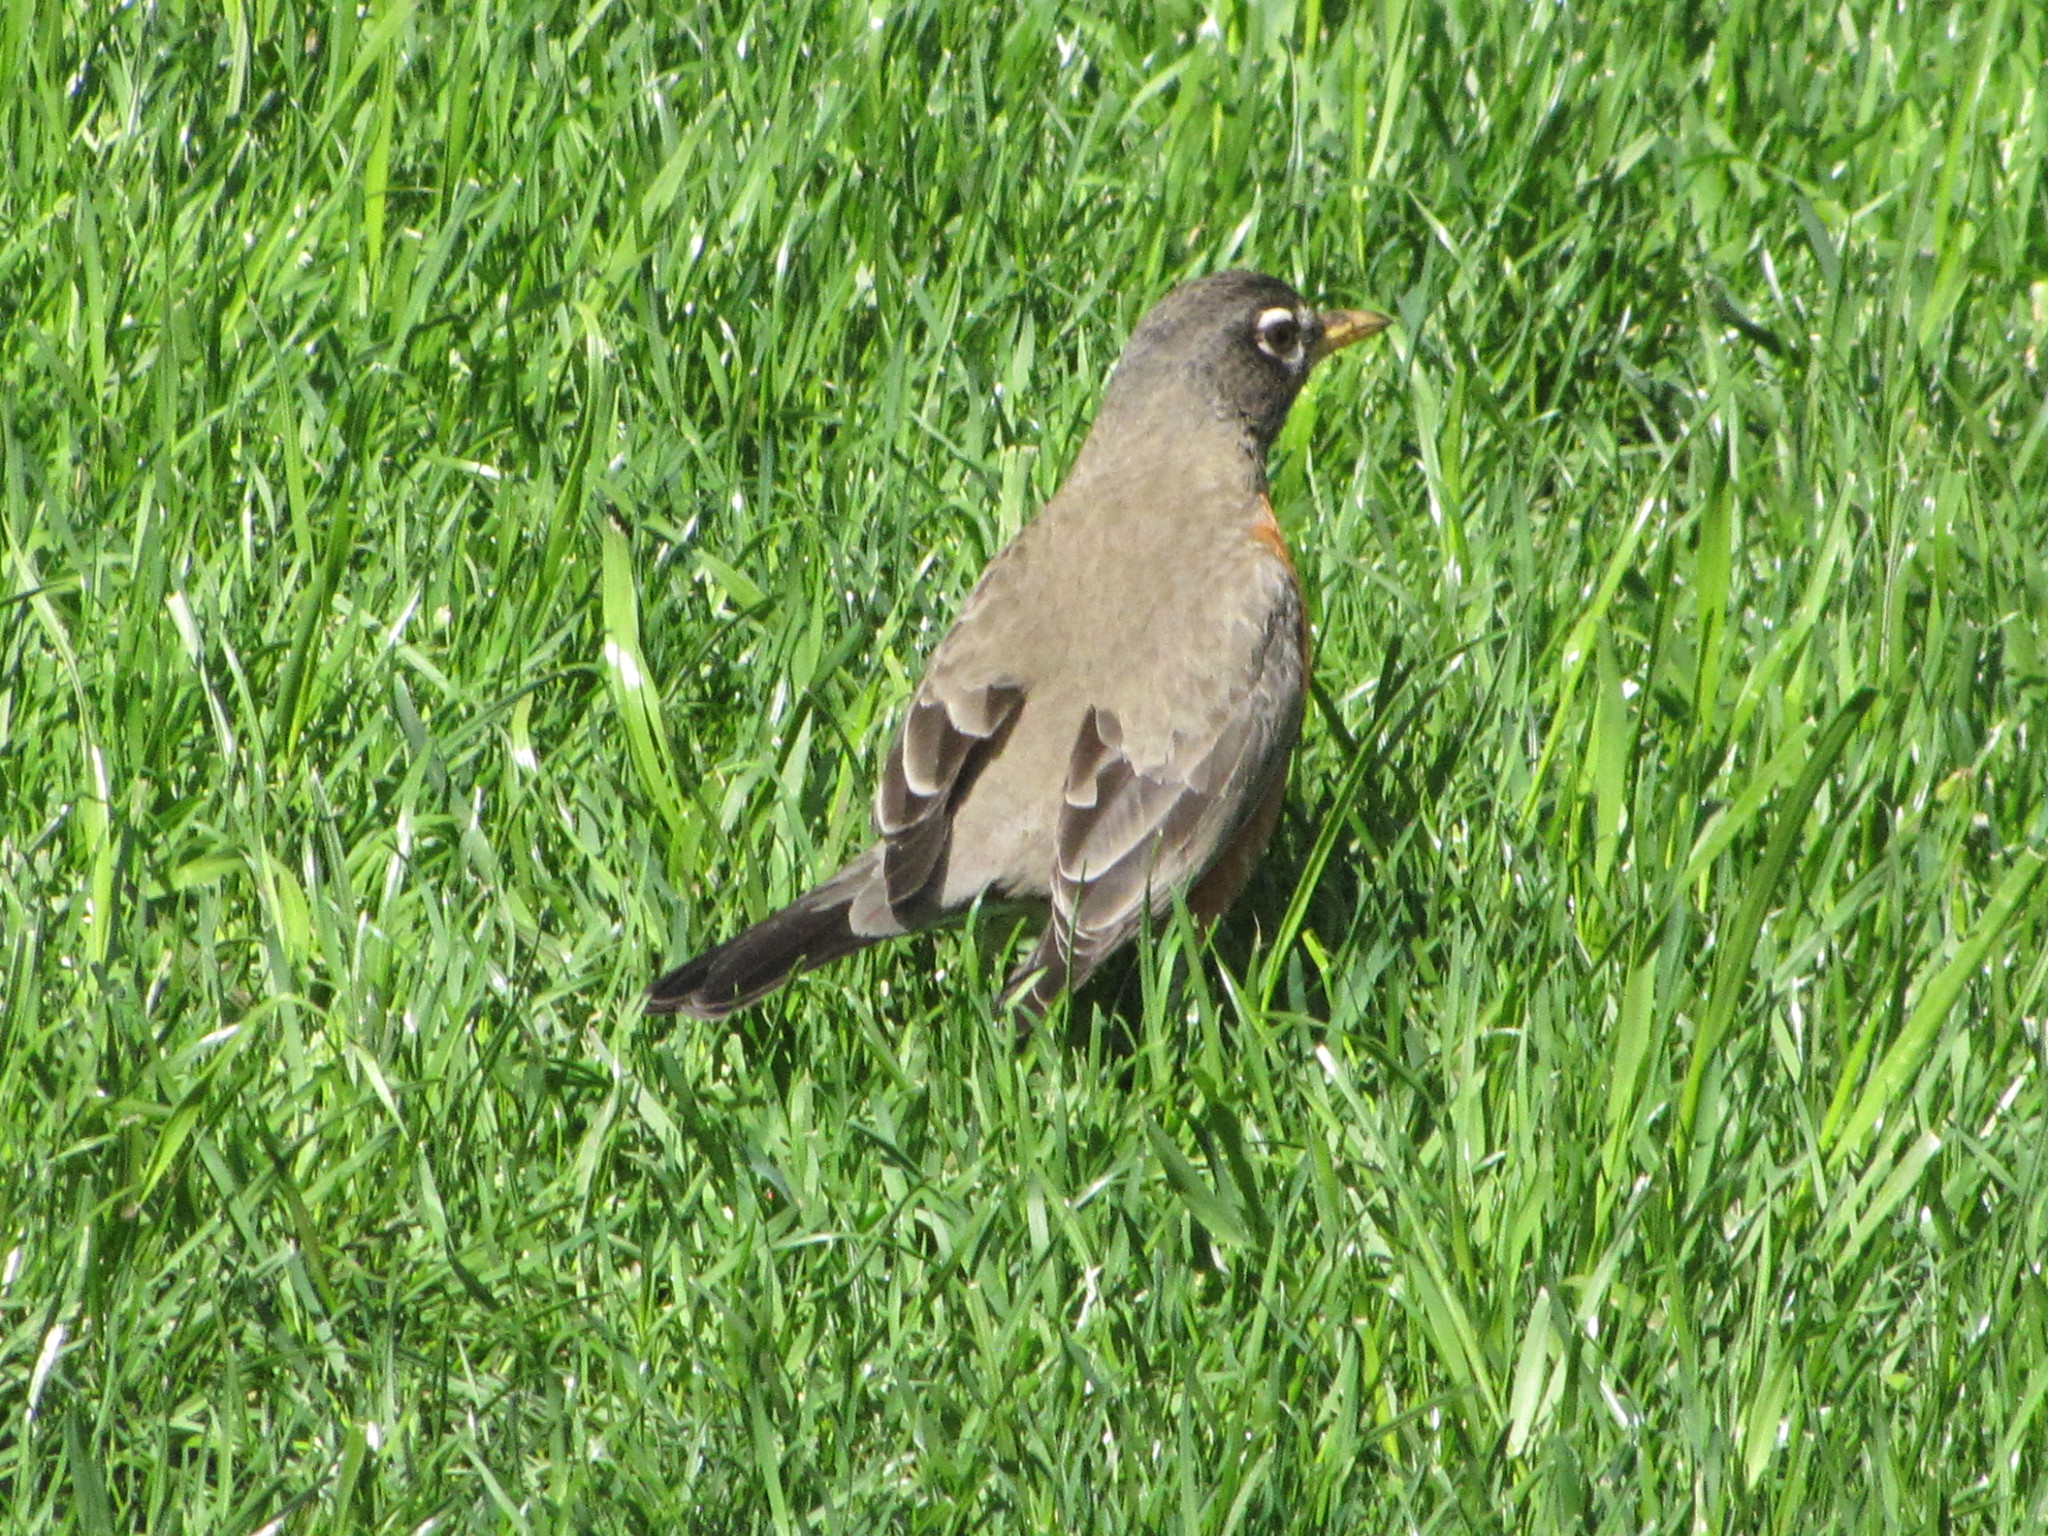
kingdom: Animalia
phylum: Chordata
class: Aves
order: Passeriformes
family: Turdidae
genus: Turdus
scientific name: Turdus migratorius
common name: American robin
